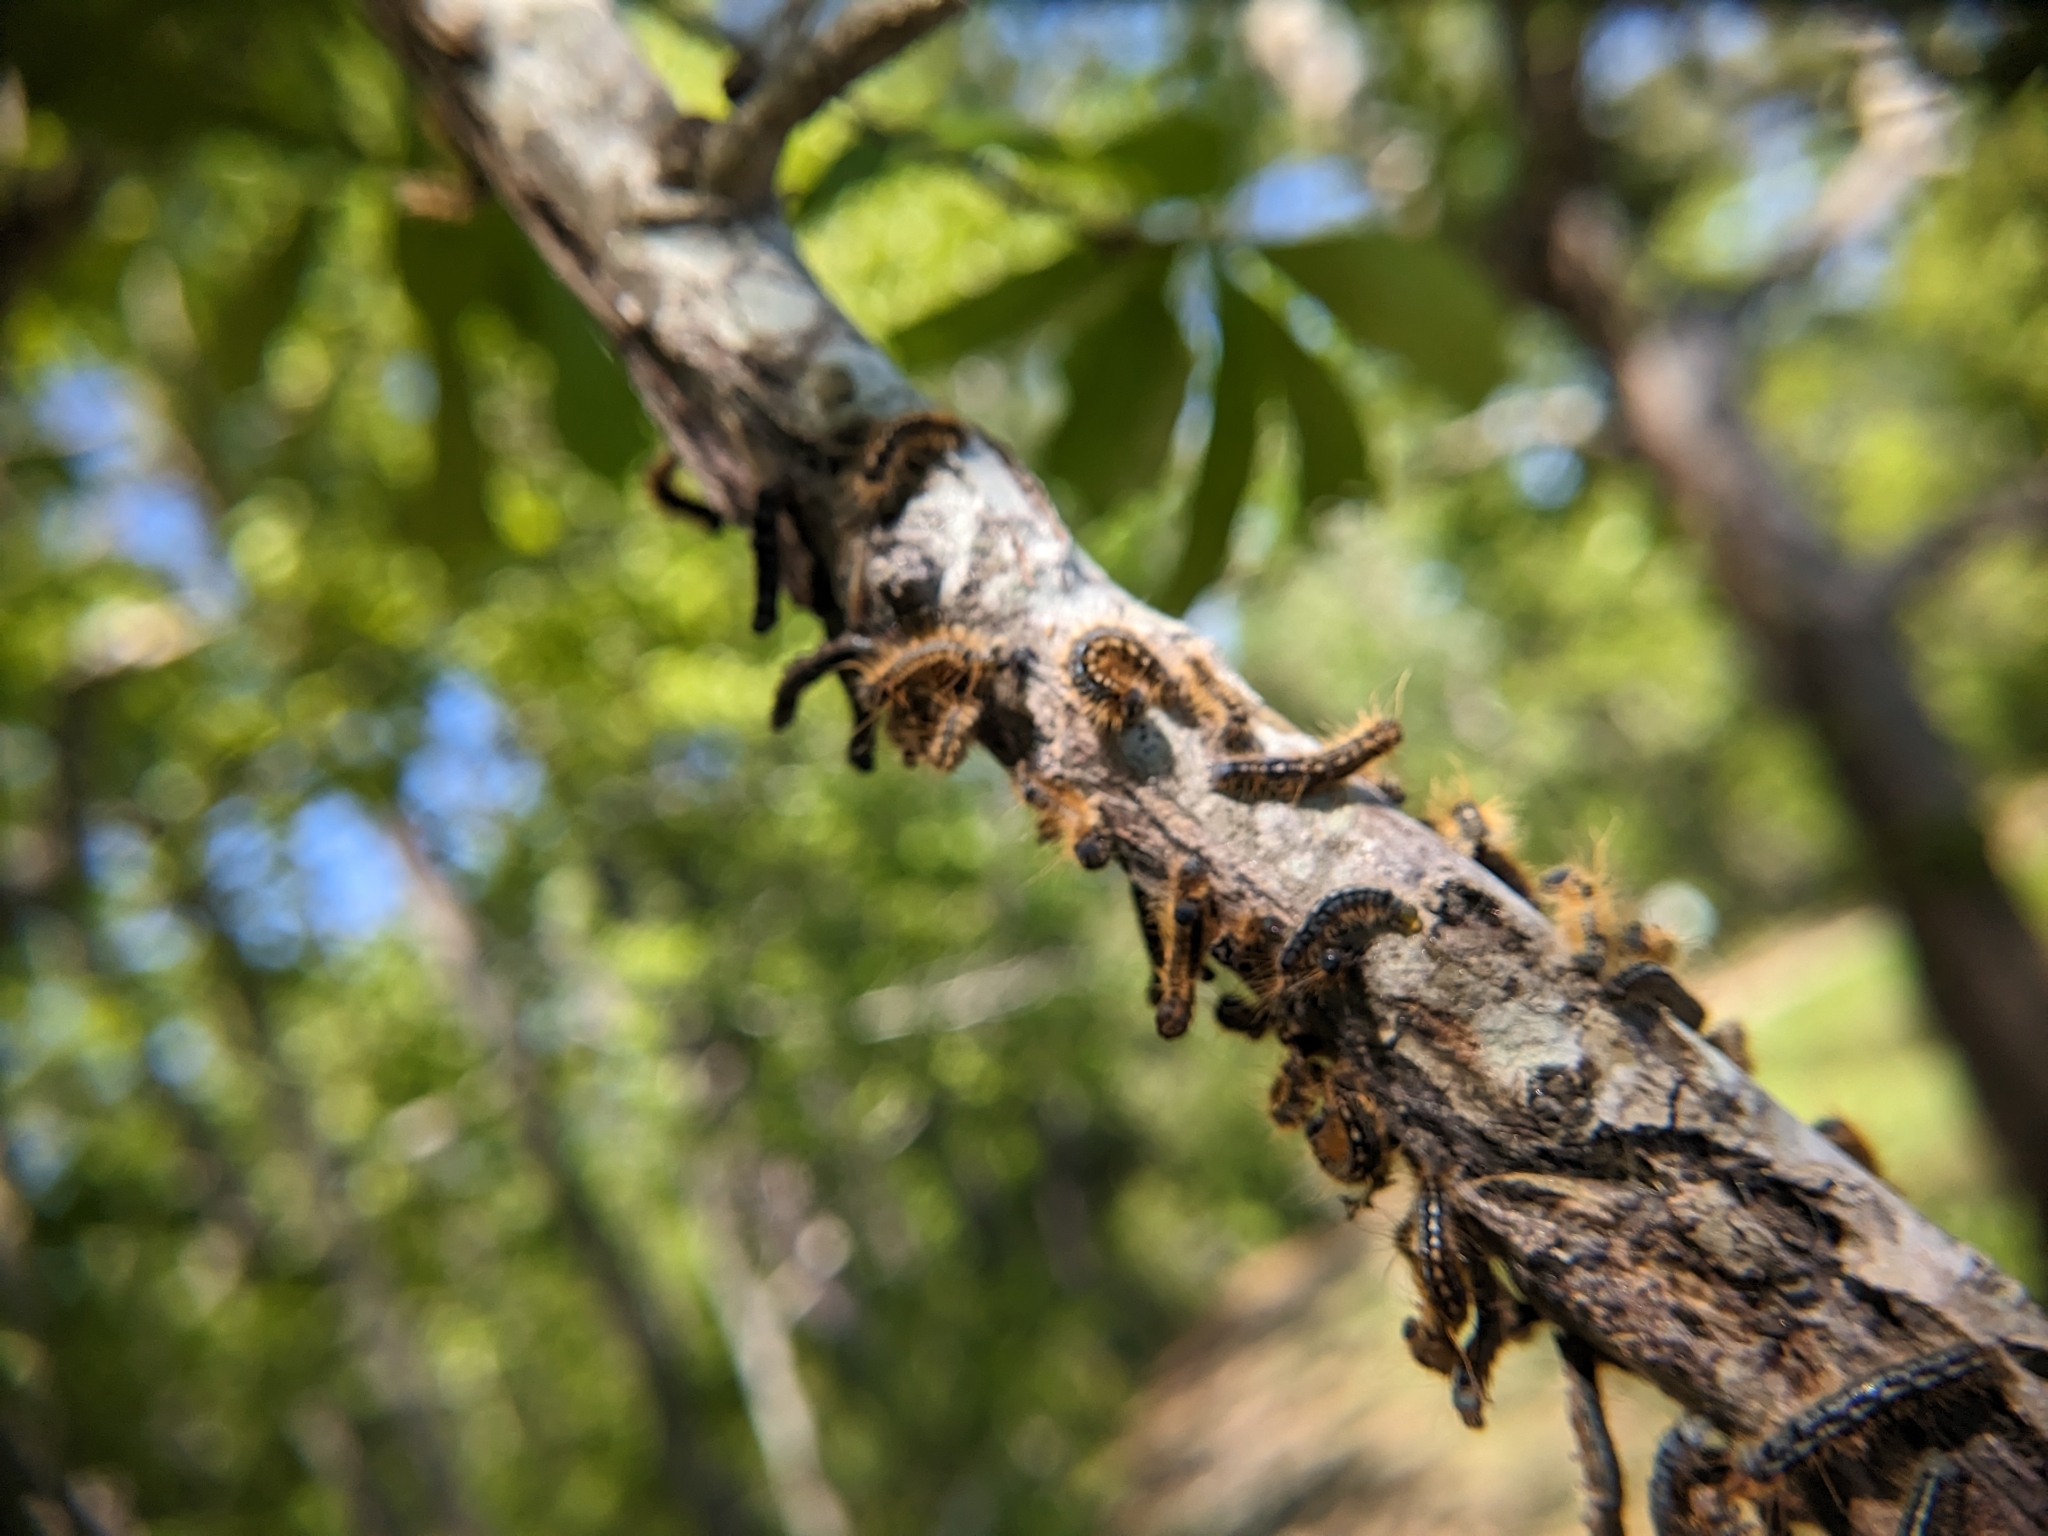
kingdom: Animalia
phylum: Arthropoda
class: Insecta
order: Lepidoptera
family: Lasiocampidae
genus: Malacosoma
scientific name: Malacosoma disstria
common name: Forest tent caterpillar
